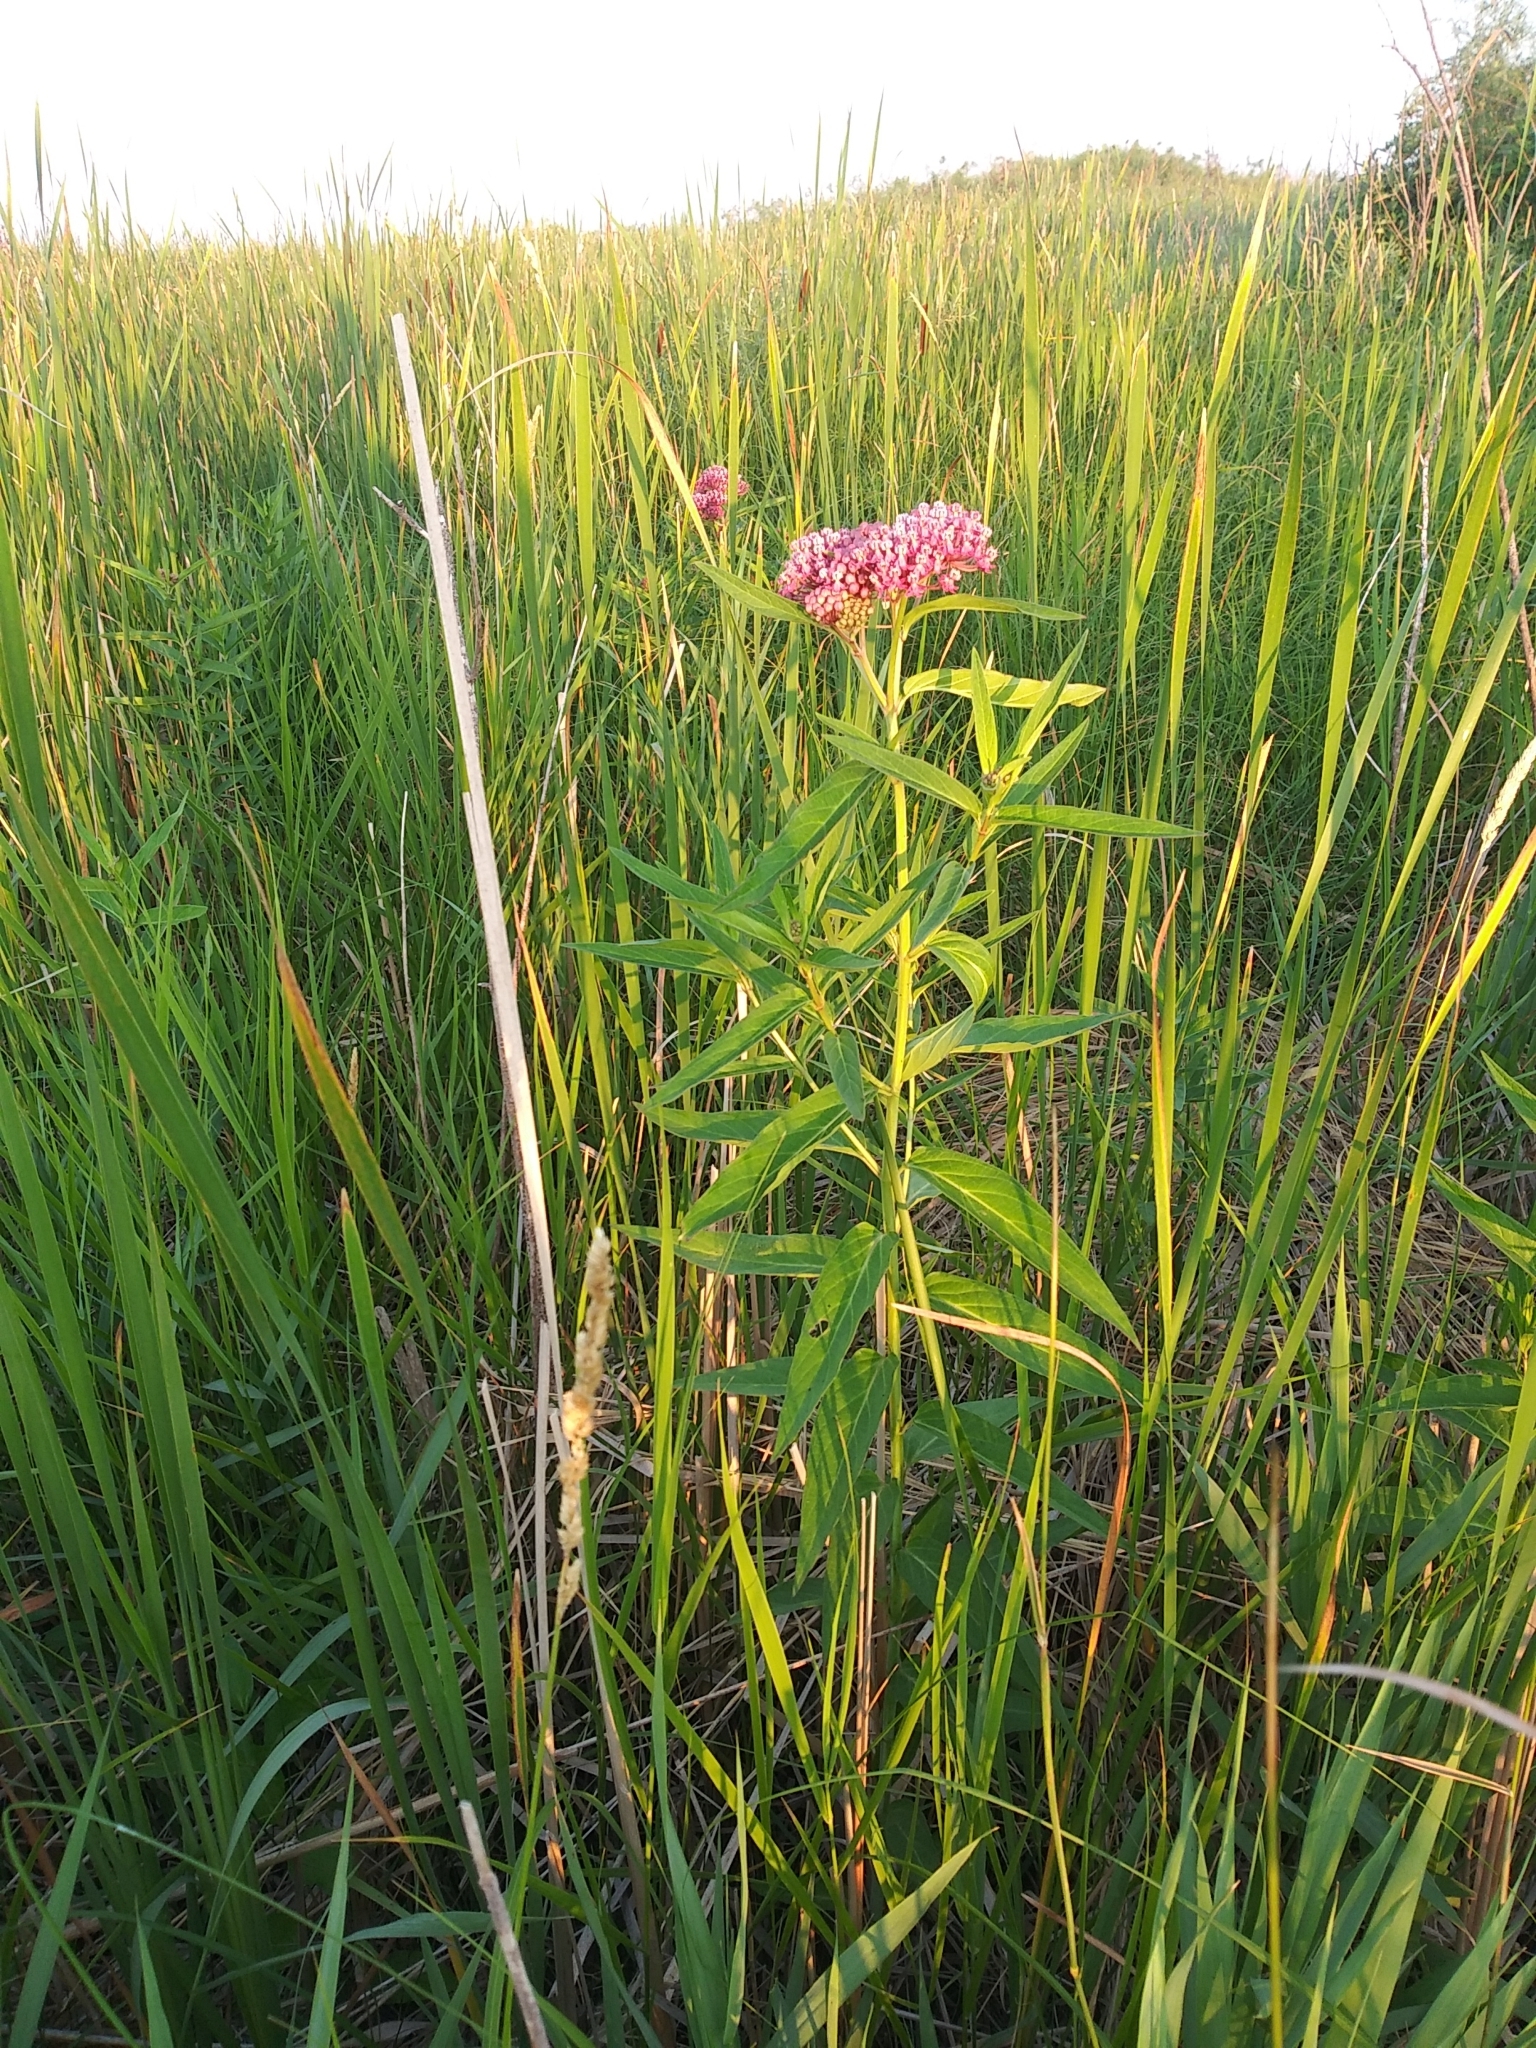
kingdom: Plantae
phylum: Tracheophyta
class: Magnoliopsida
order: Gentianales
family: Apocynaceae
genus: Asclepias
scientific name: Asclepias incarnata
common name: Swamp milkweed
